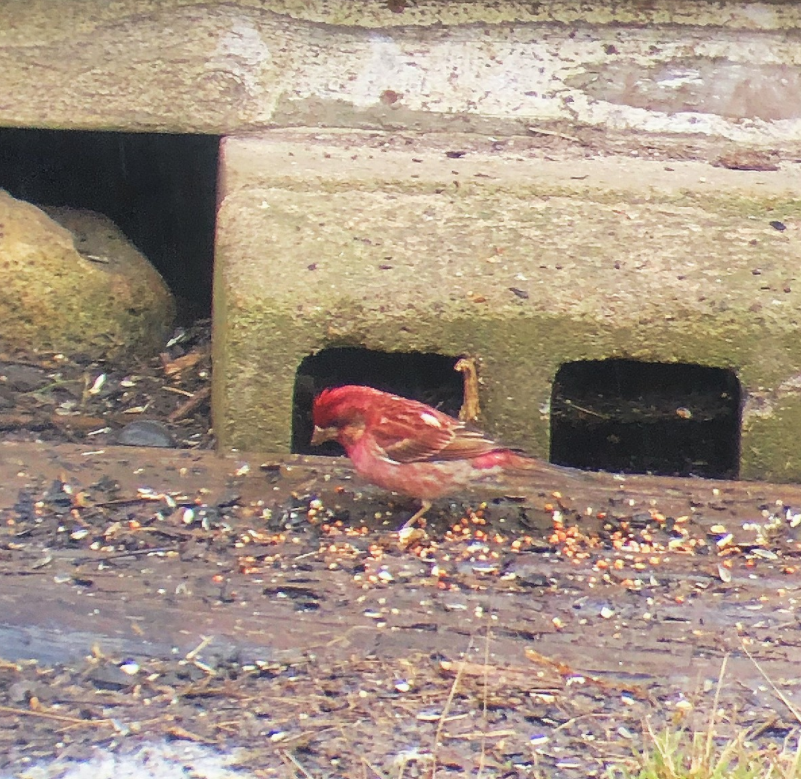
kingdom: Animalia
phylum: Chordata
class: Aves
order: Passeriformes
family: Fringillidae
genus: Haemorhous
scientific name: Haemorhous purpureus
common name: Purple finch
